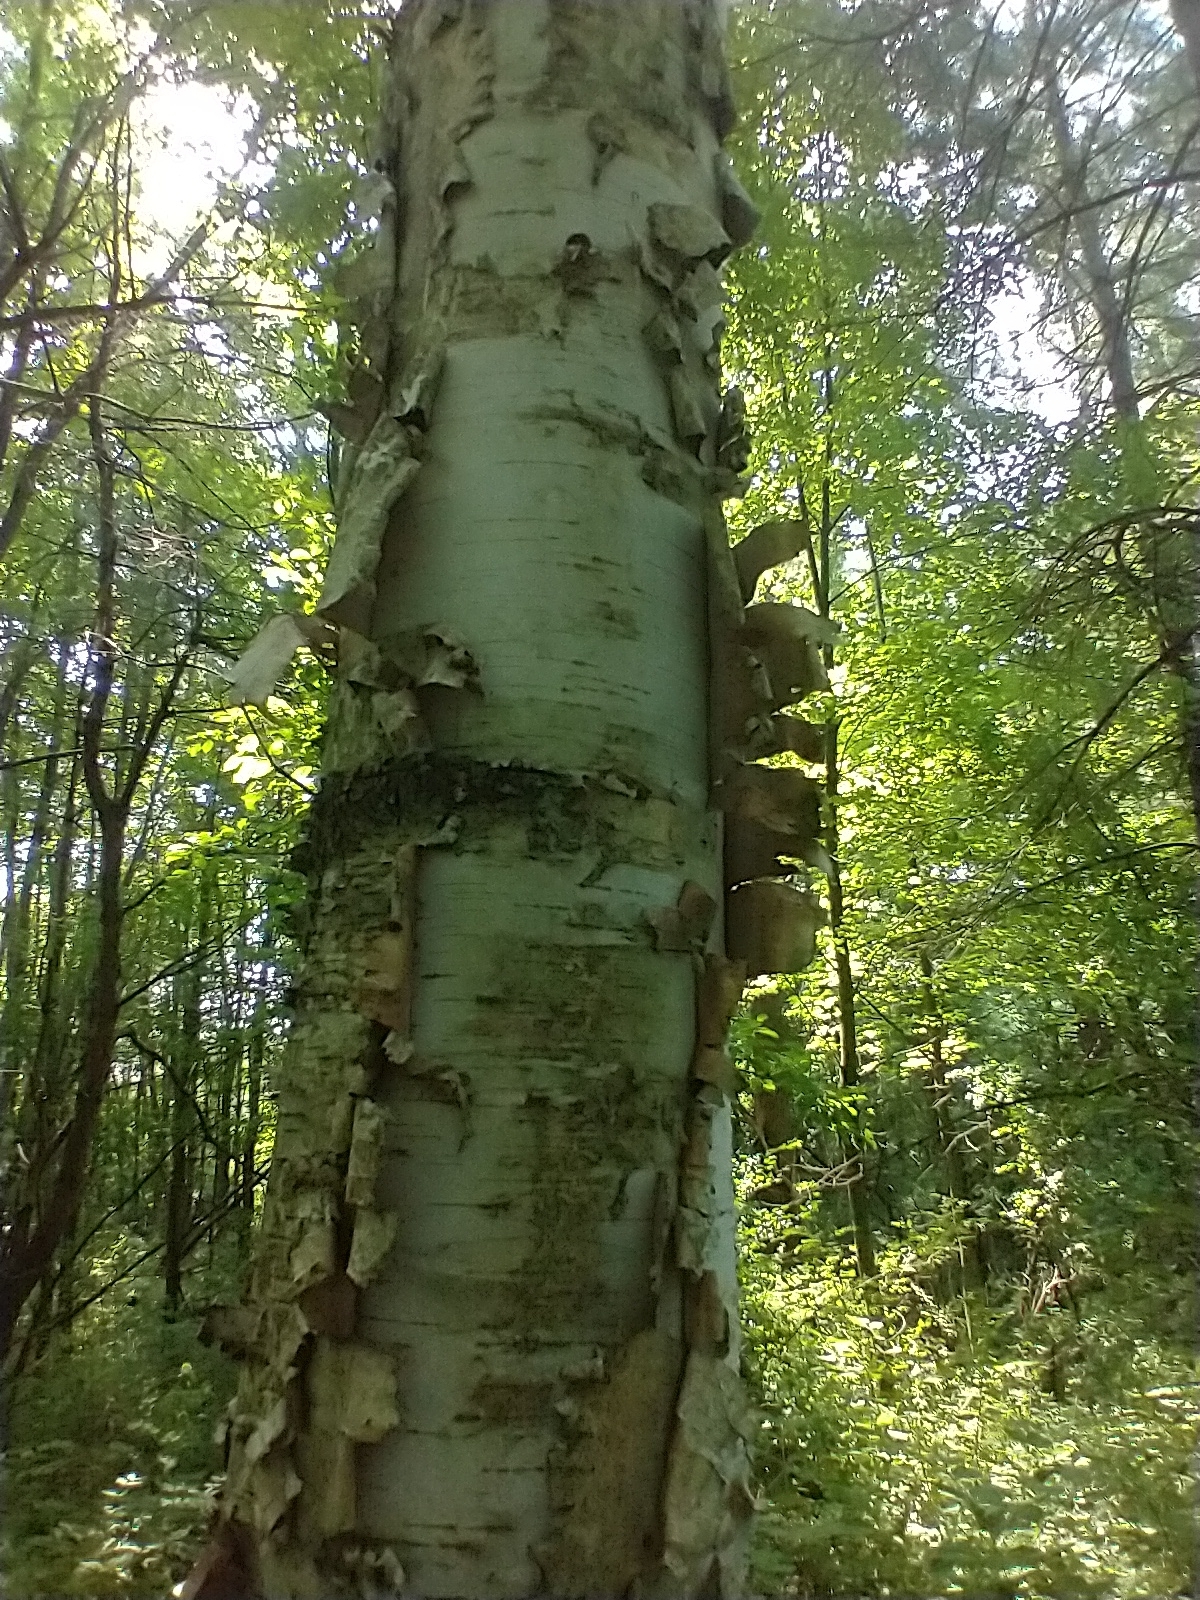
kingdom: Plantae
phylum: Tracheophyta
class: Magnoliopsida
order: Fagales
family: Betulaceae
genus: Betula
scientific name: Betula papyrifera
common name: Paper birch
